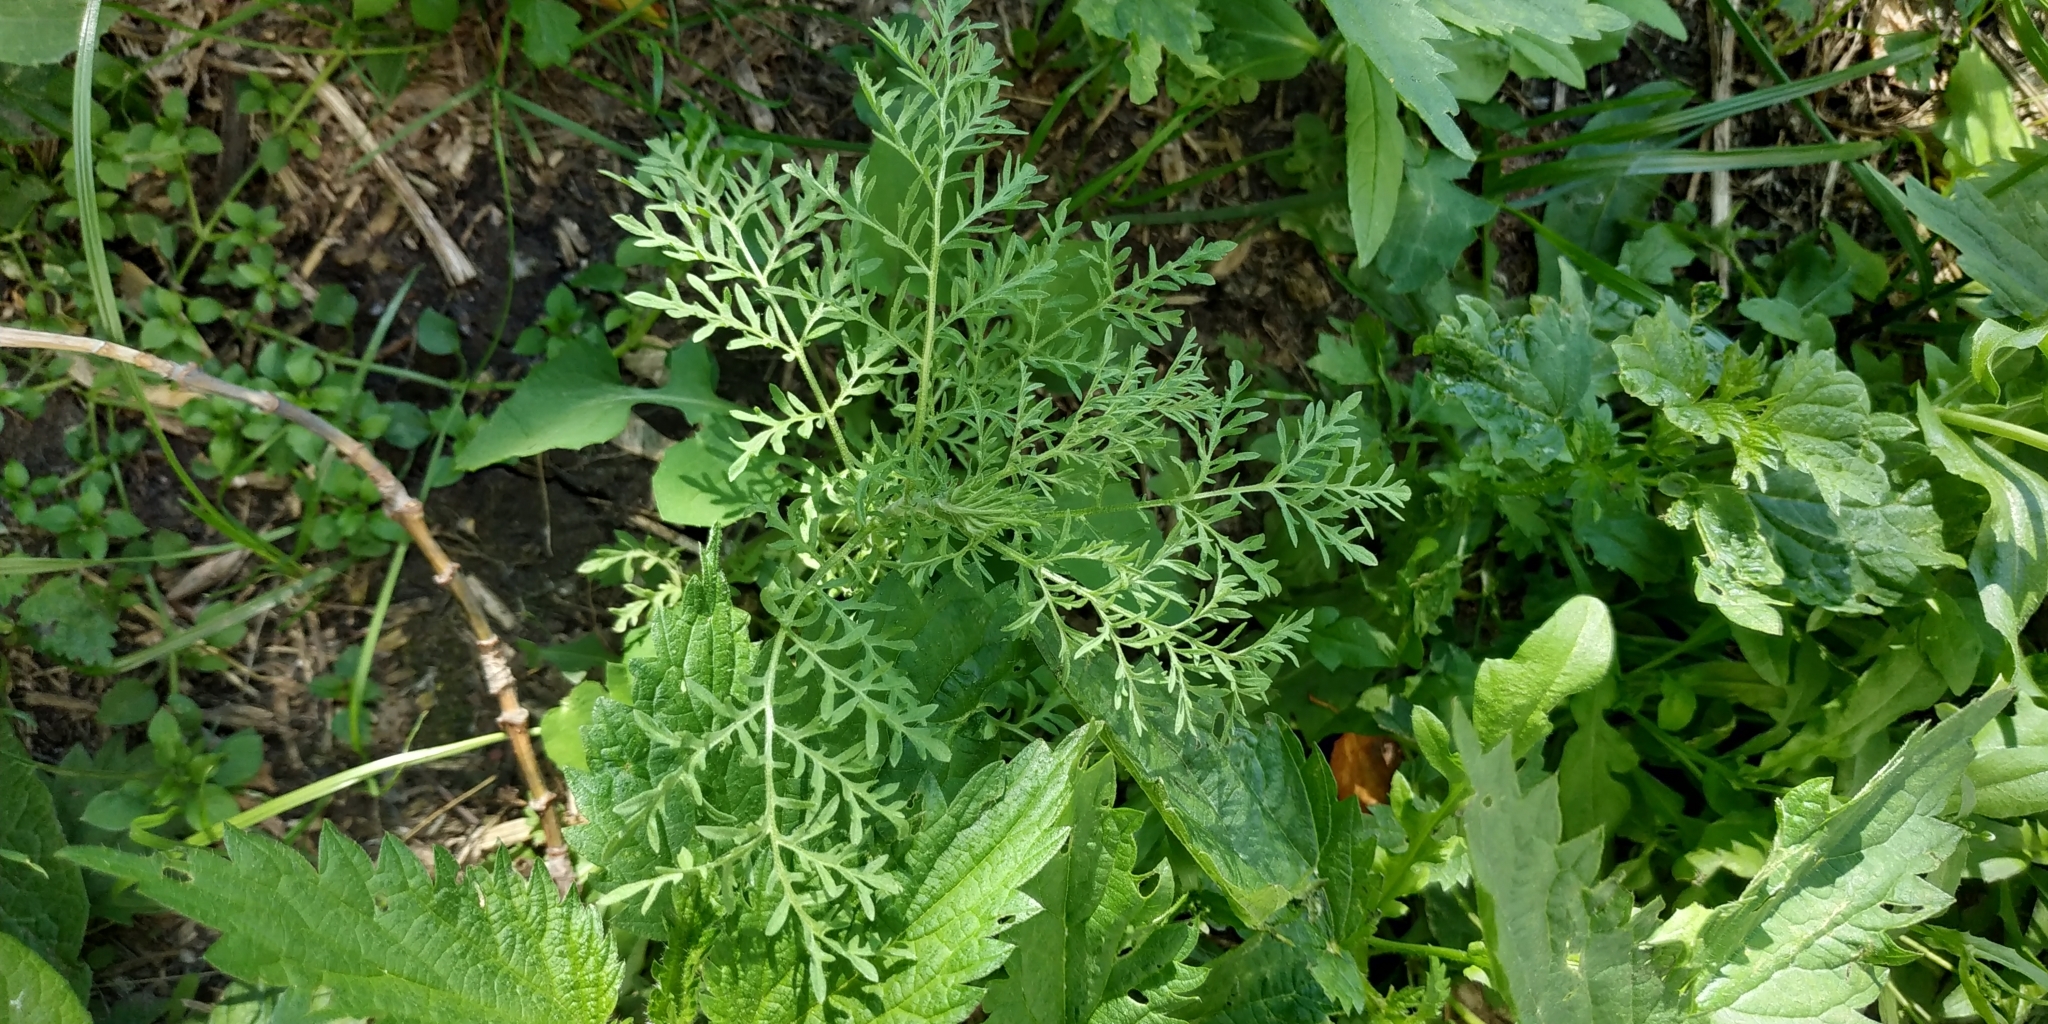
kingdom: Plantae
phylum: Tracheophyta
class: Magnoliopsida
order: Brassicales
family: Brassicaceae
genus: Descurainia
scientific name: Descurainia sophia
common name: Flixweed
